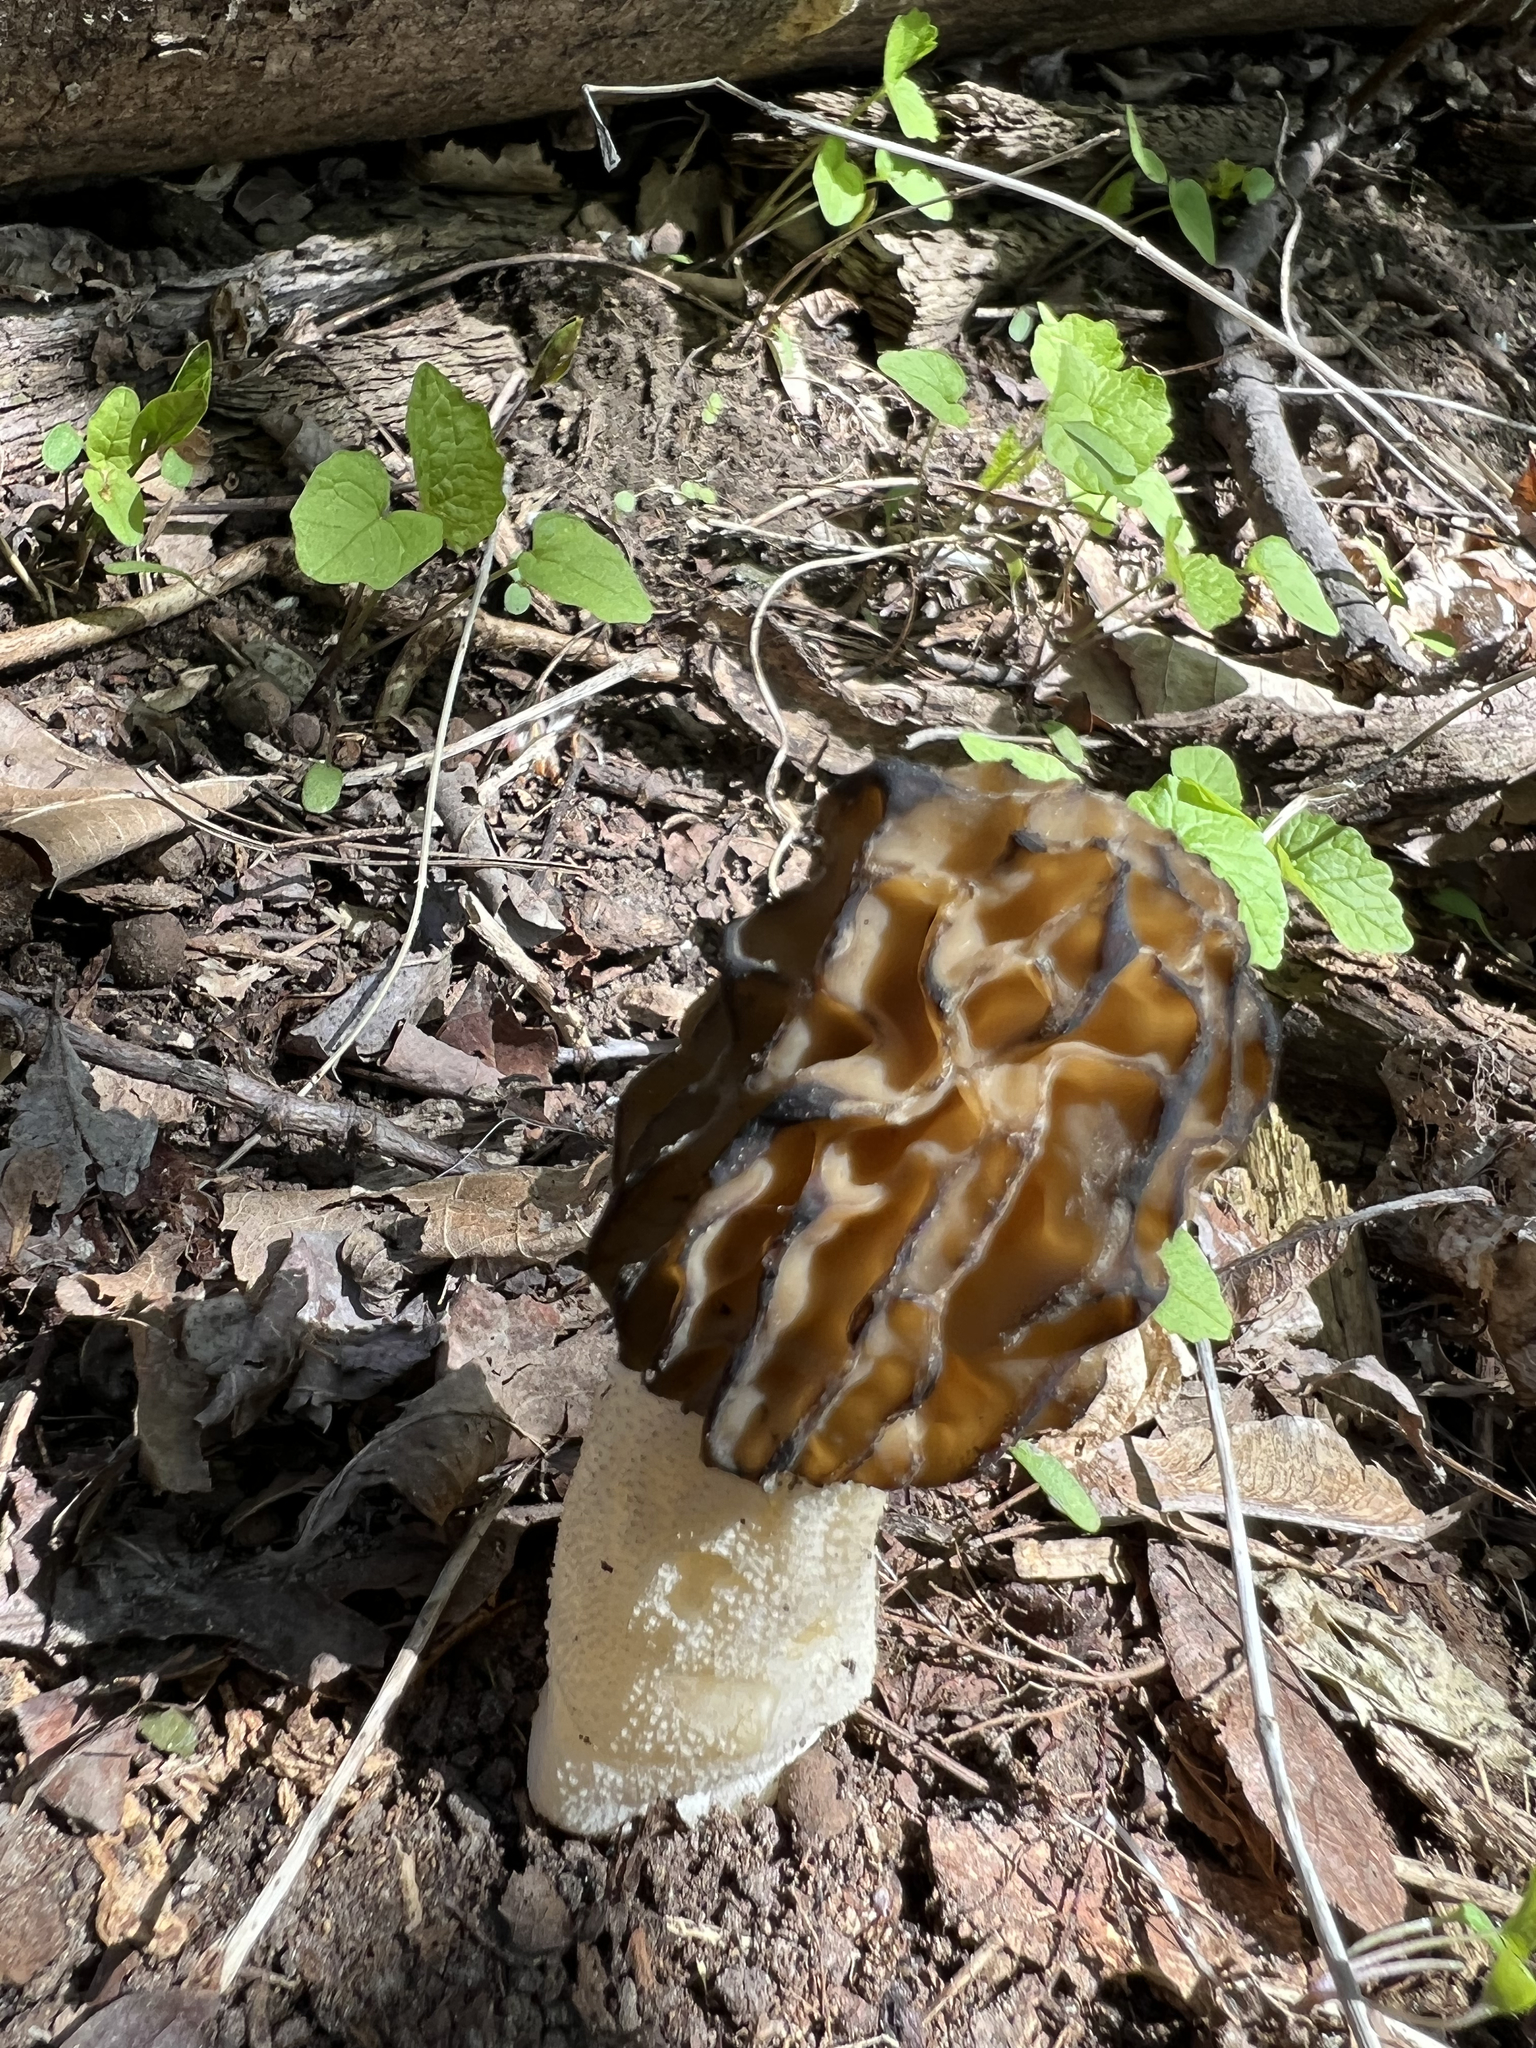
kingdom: Fungi
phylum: Ascomycota
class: Pezizomycetes
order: Pezizales
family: Morchellaceae
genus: Morchella
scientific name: Morchella punctipes
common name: Half-free morel
